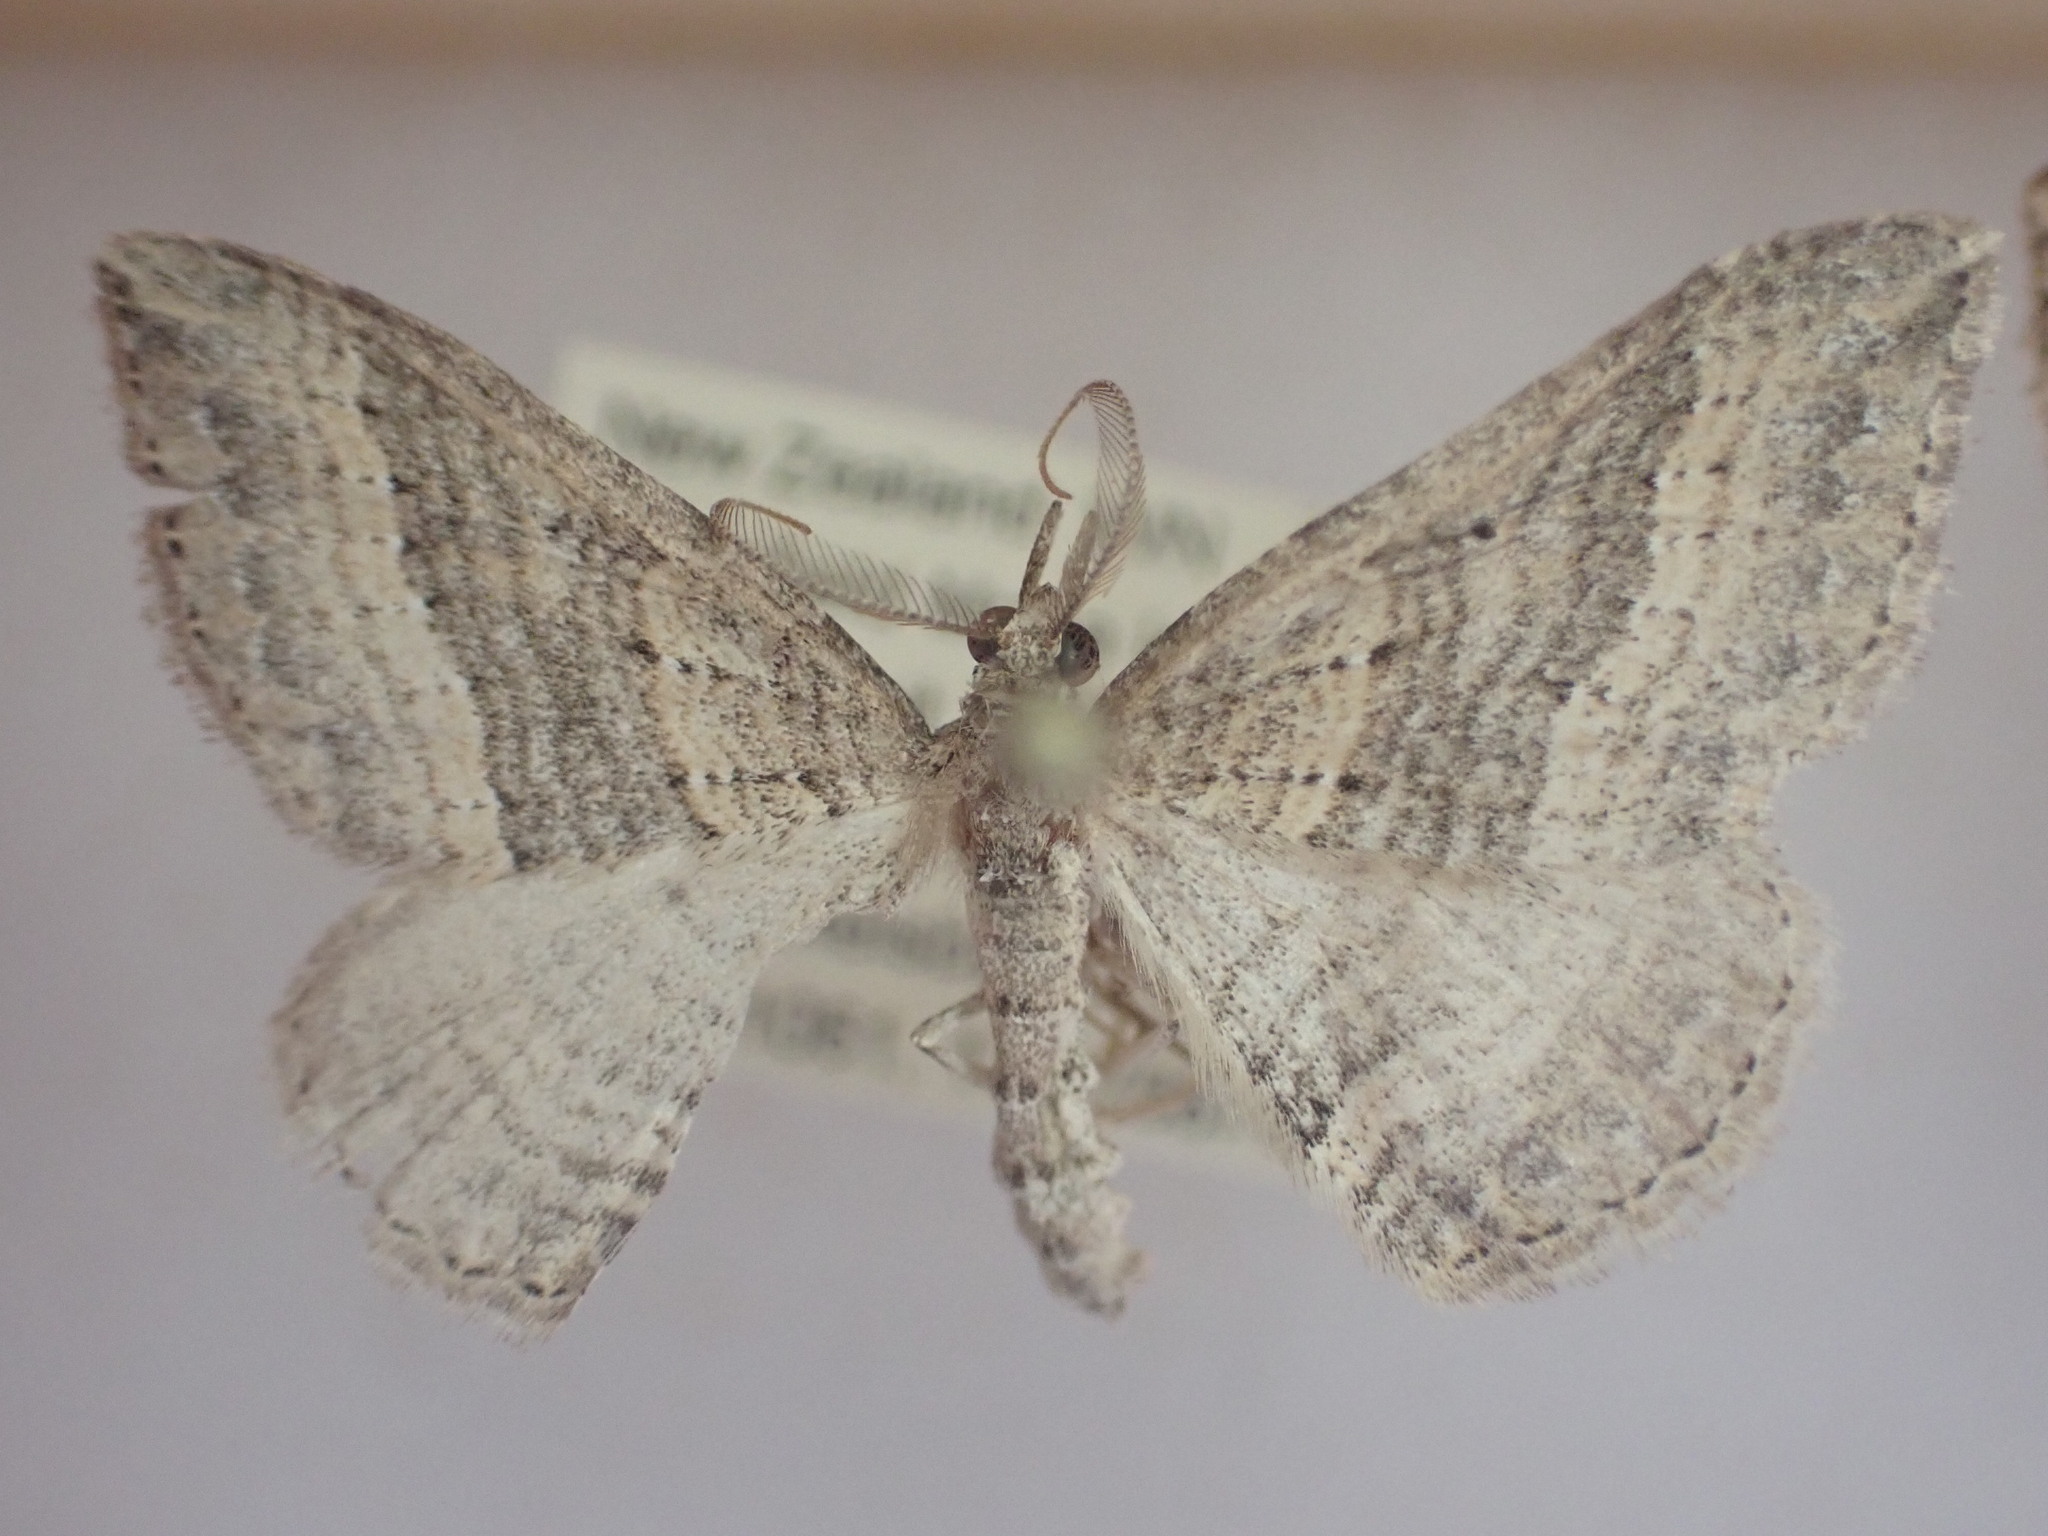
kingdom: Animalia
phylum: Arthropoda
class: Insecta
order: Lepidoptera
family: Geometridae
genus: Epyaxa
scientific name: Epyaxa venipunctata
